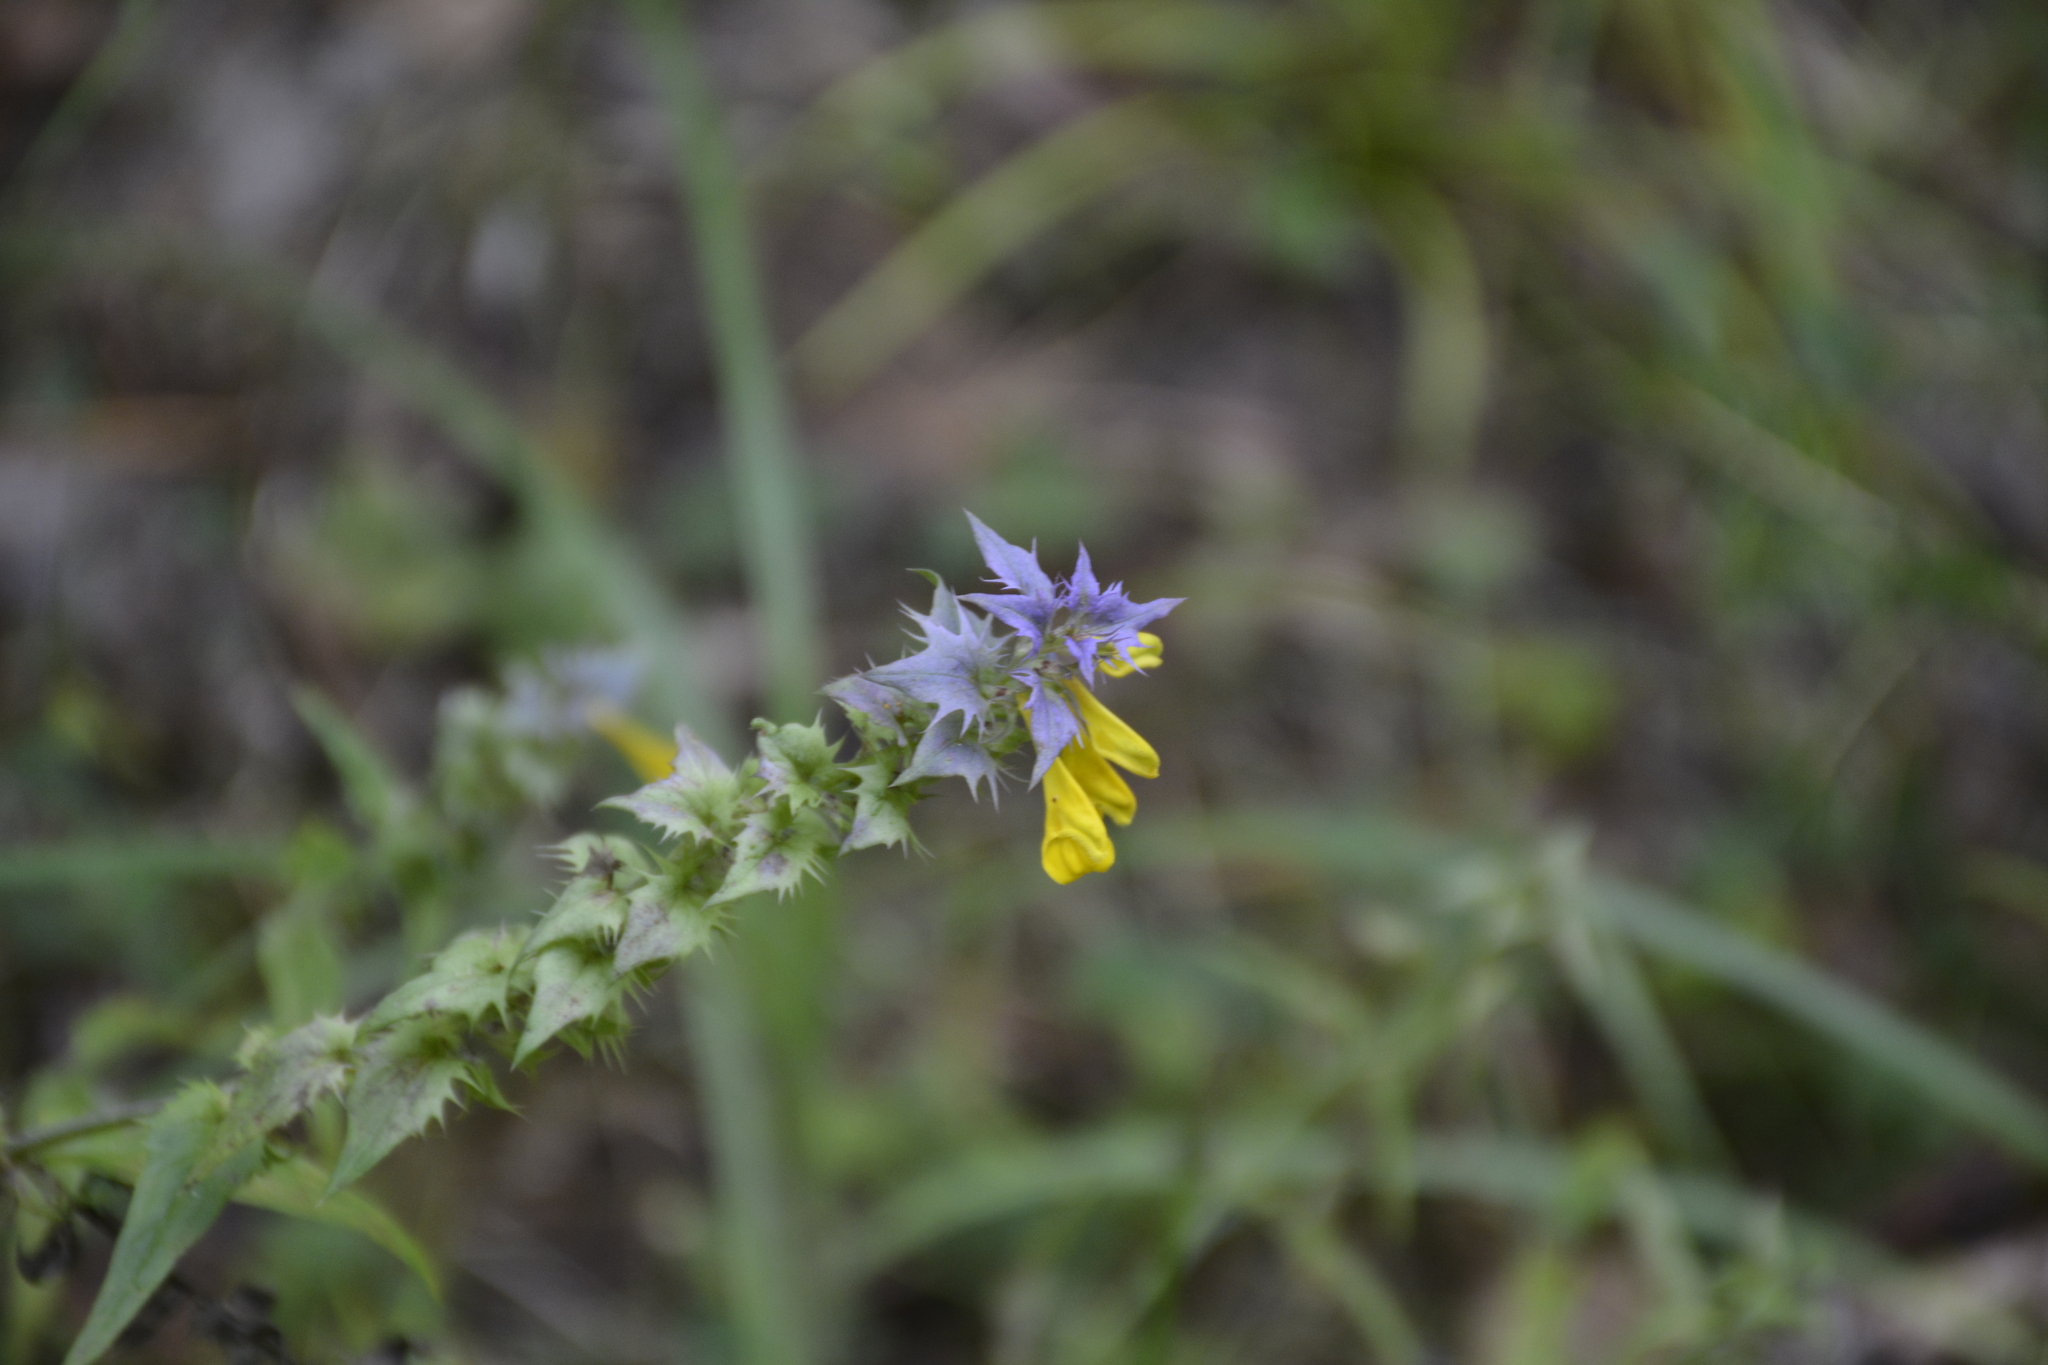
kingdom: Plantae
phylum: Tracheophyta
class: Magnoliopsida
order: Lamiales
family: Orobanchaceae
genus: Melampyrum
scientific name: Melampyrum nemorosum
